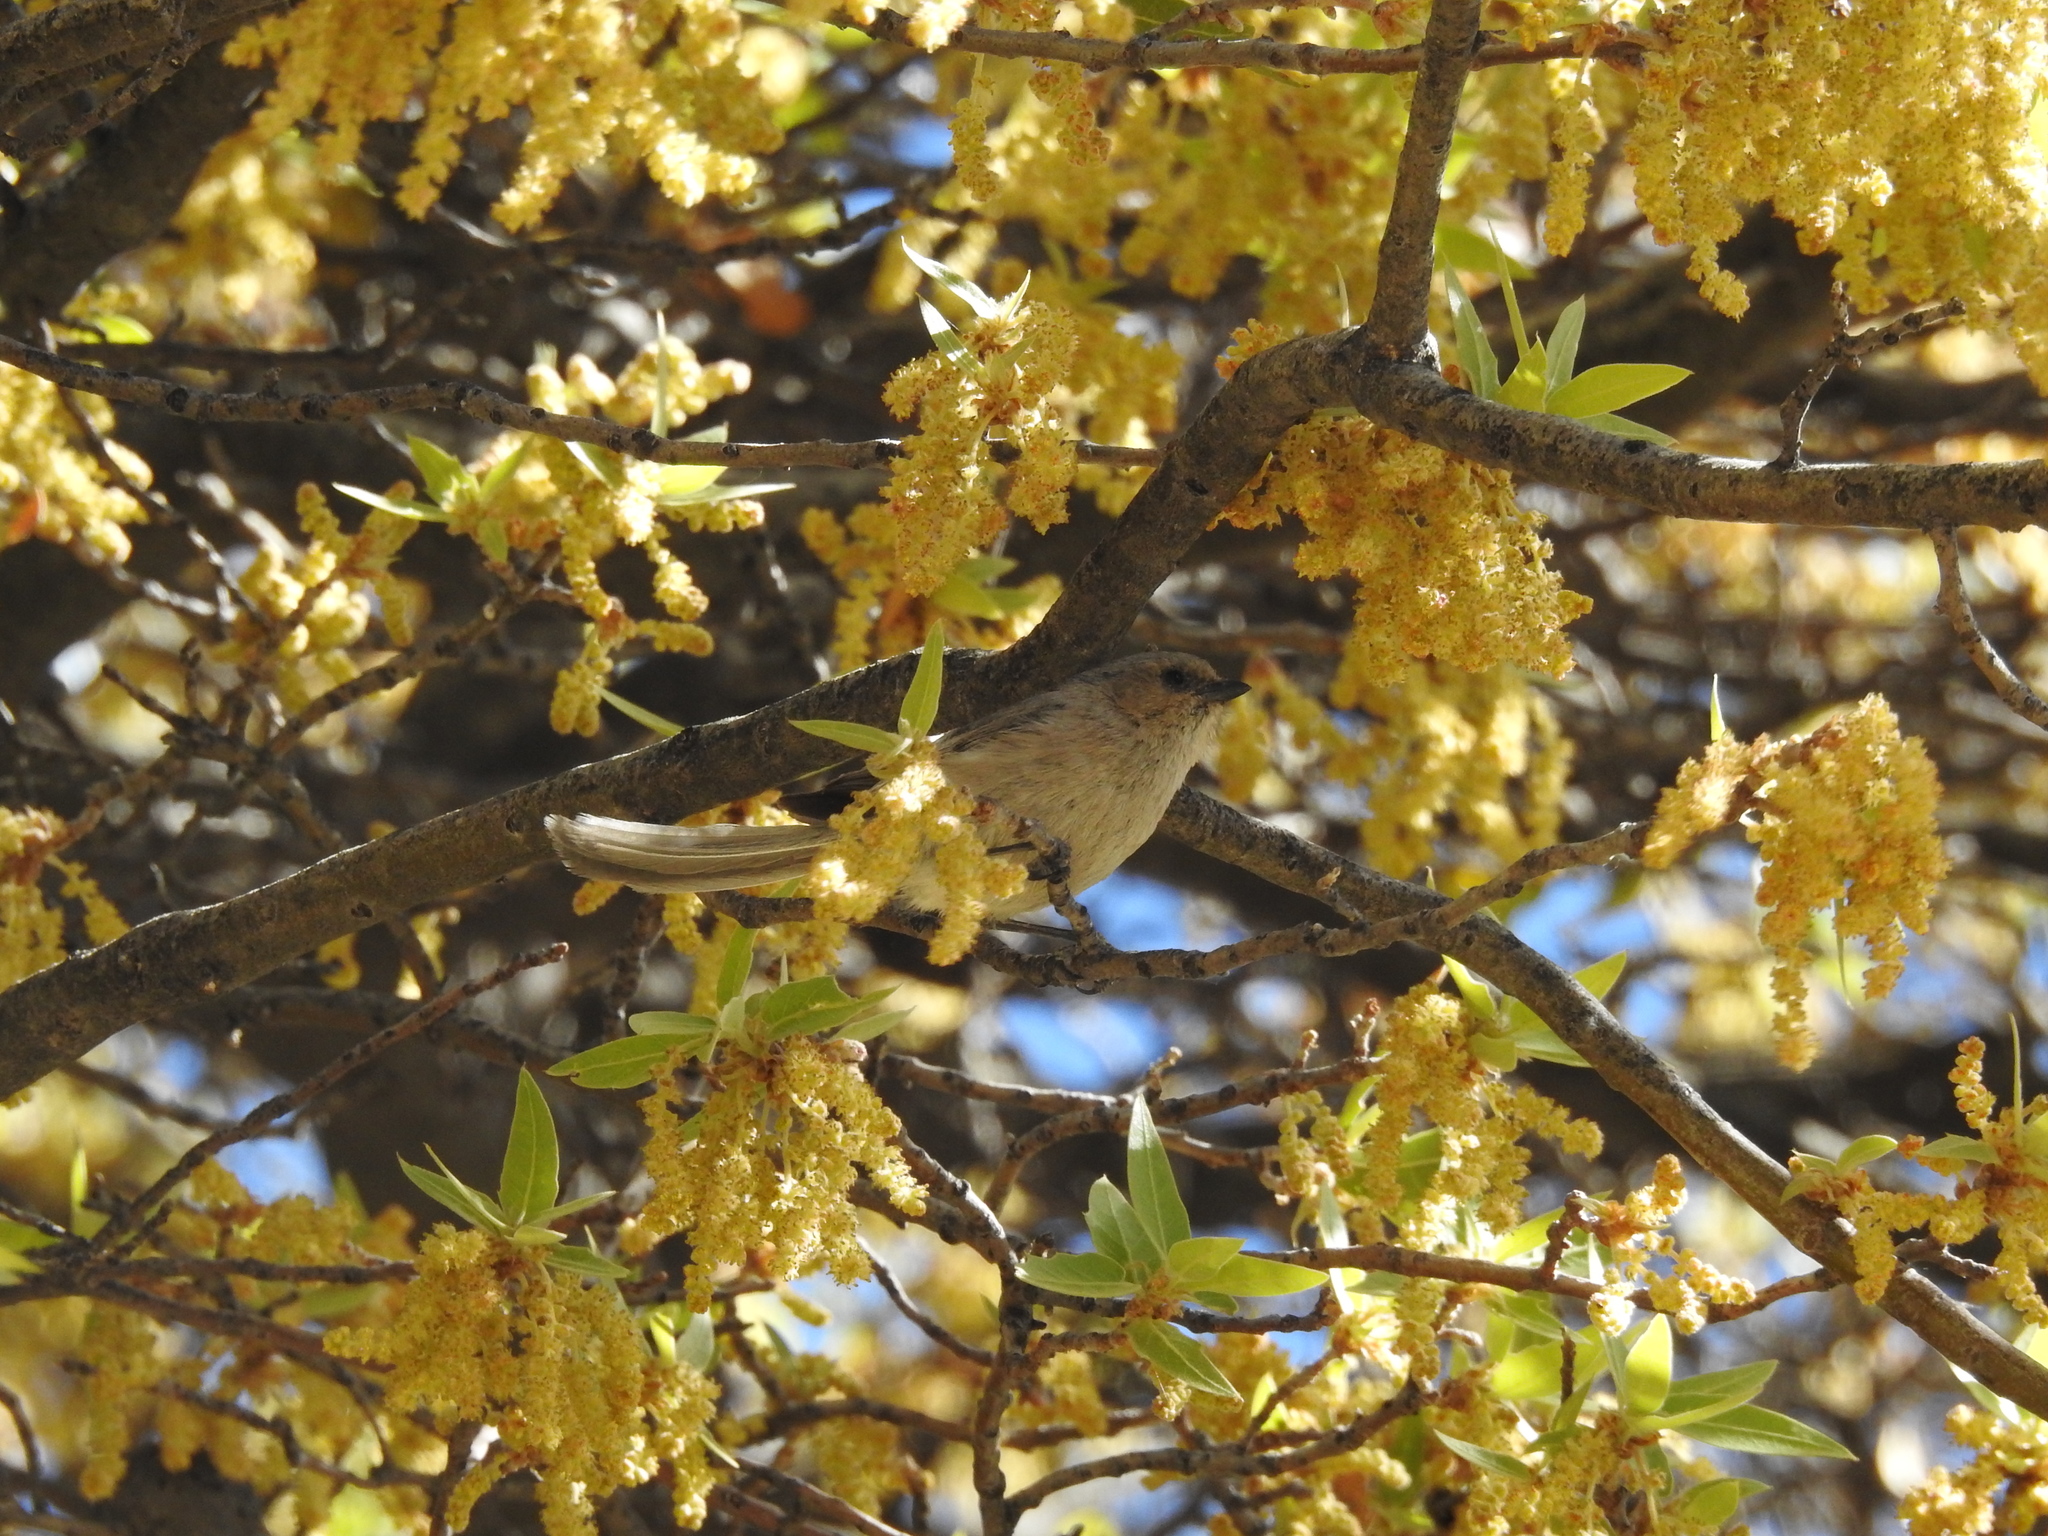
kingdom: Animalia
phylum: Chordata
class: Aves
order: Passeriformes
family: Aegithalidae
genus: Psaltriparus
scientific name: Psaltriparus minimus
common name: American bushtit
